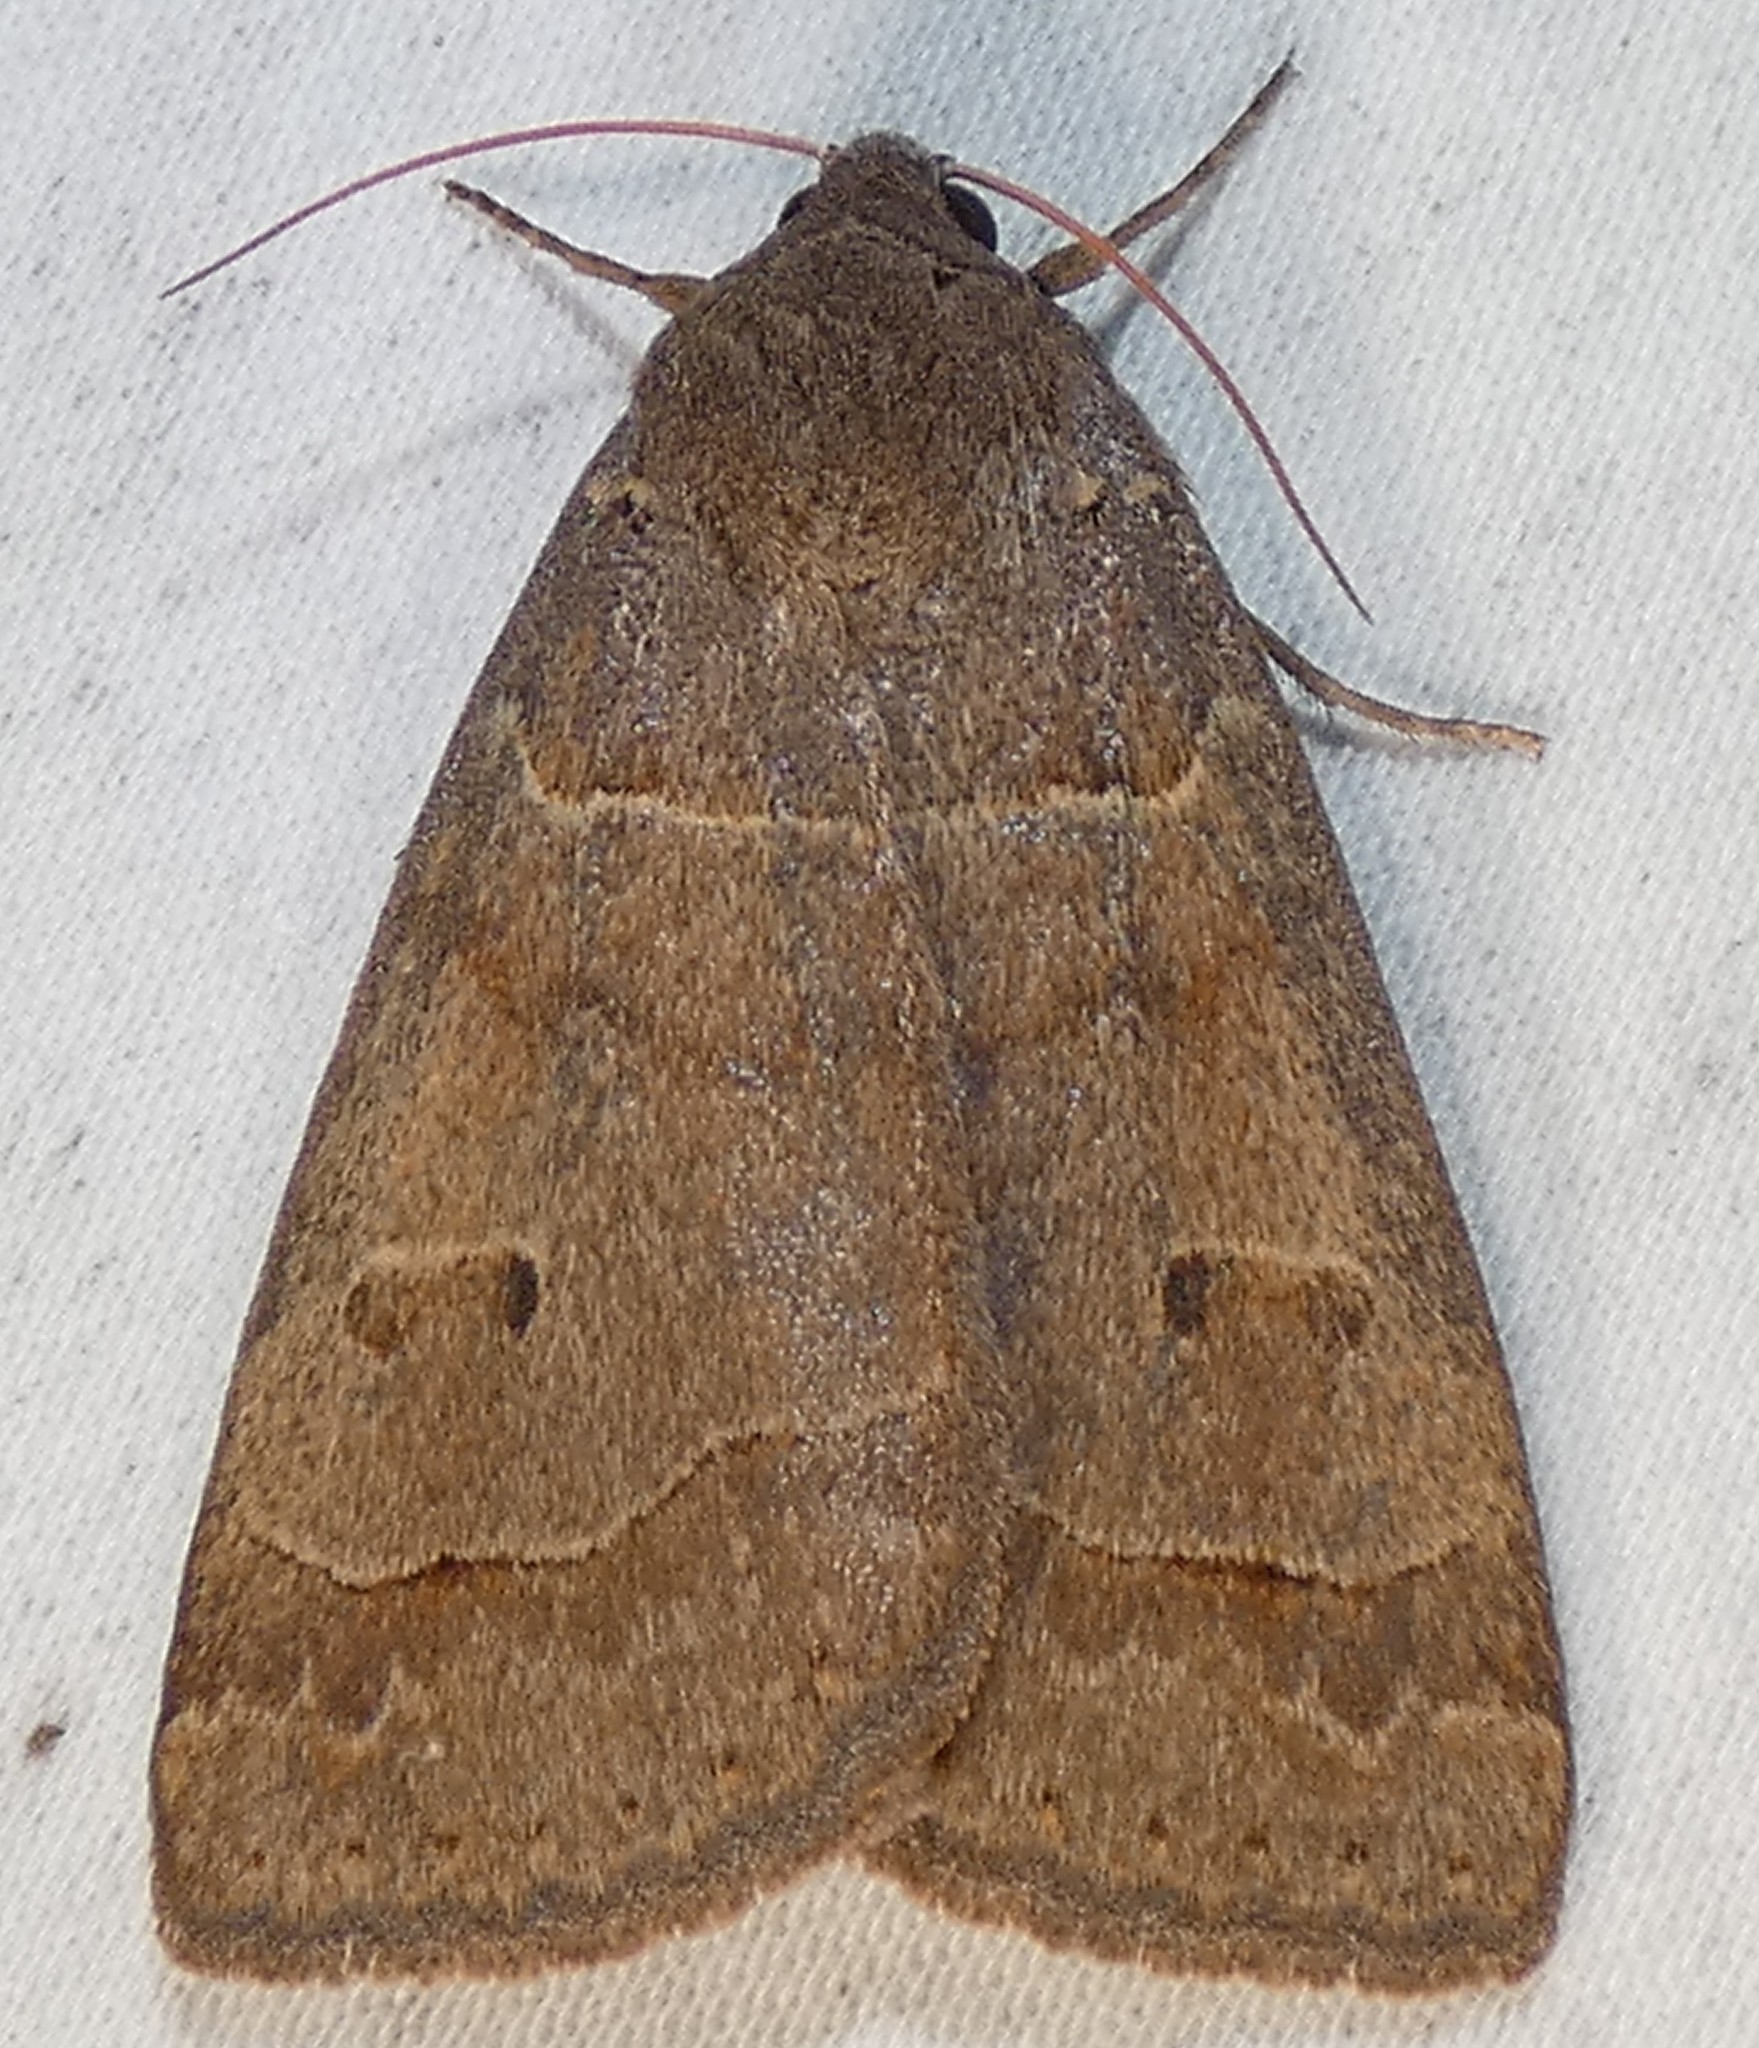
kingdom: Animalia
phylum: Arthropoda
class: Insecta
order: Lepidoptera
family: Erebidae
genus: Phoberia
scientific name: Phoberia atomaris
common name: Common oak moth
